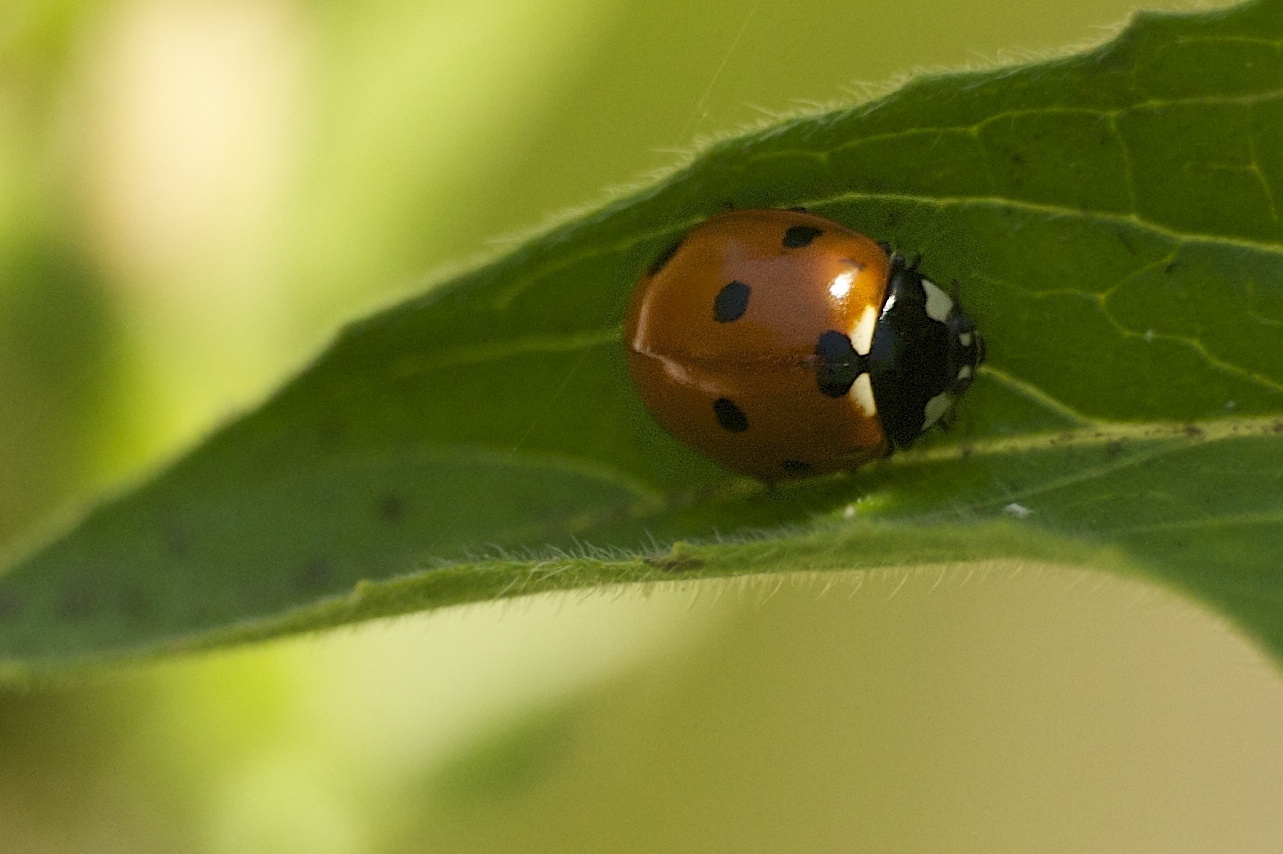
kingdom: Animalia
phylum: Arthropoda
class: Insecta
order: Coleoptera
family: Coccinellidae
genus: Coccinella
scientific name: Coccinella septempunctata
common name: Sevenspotted lady beetle
